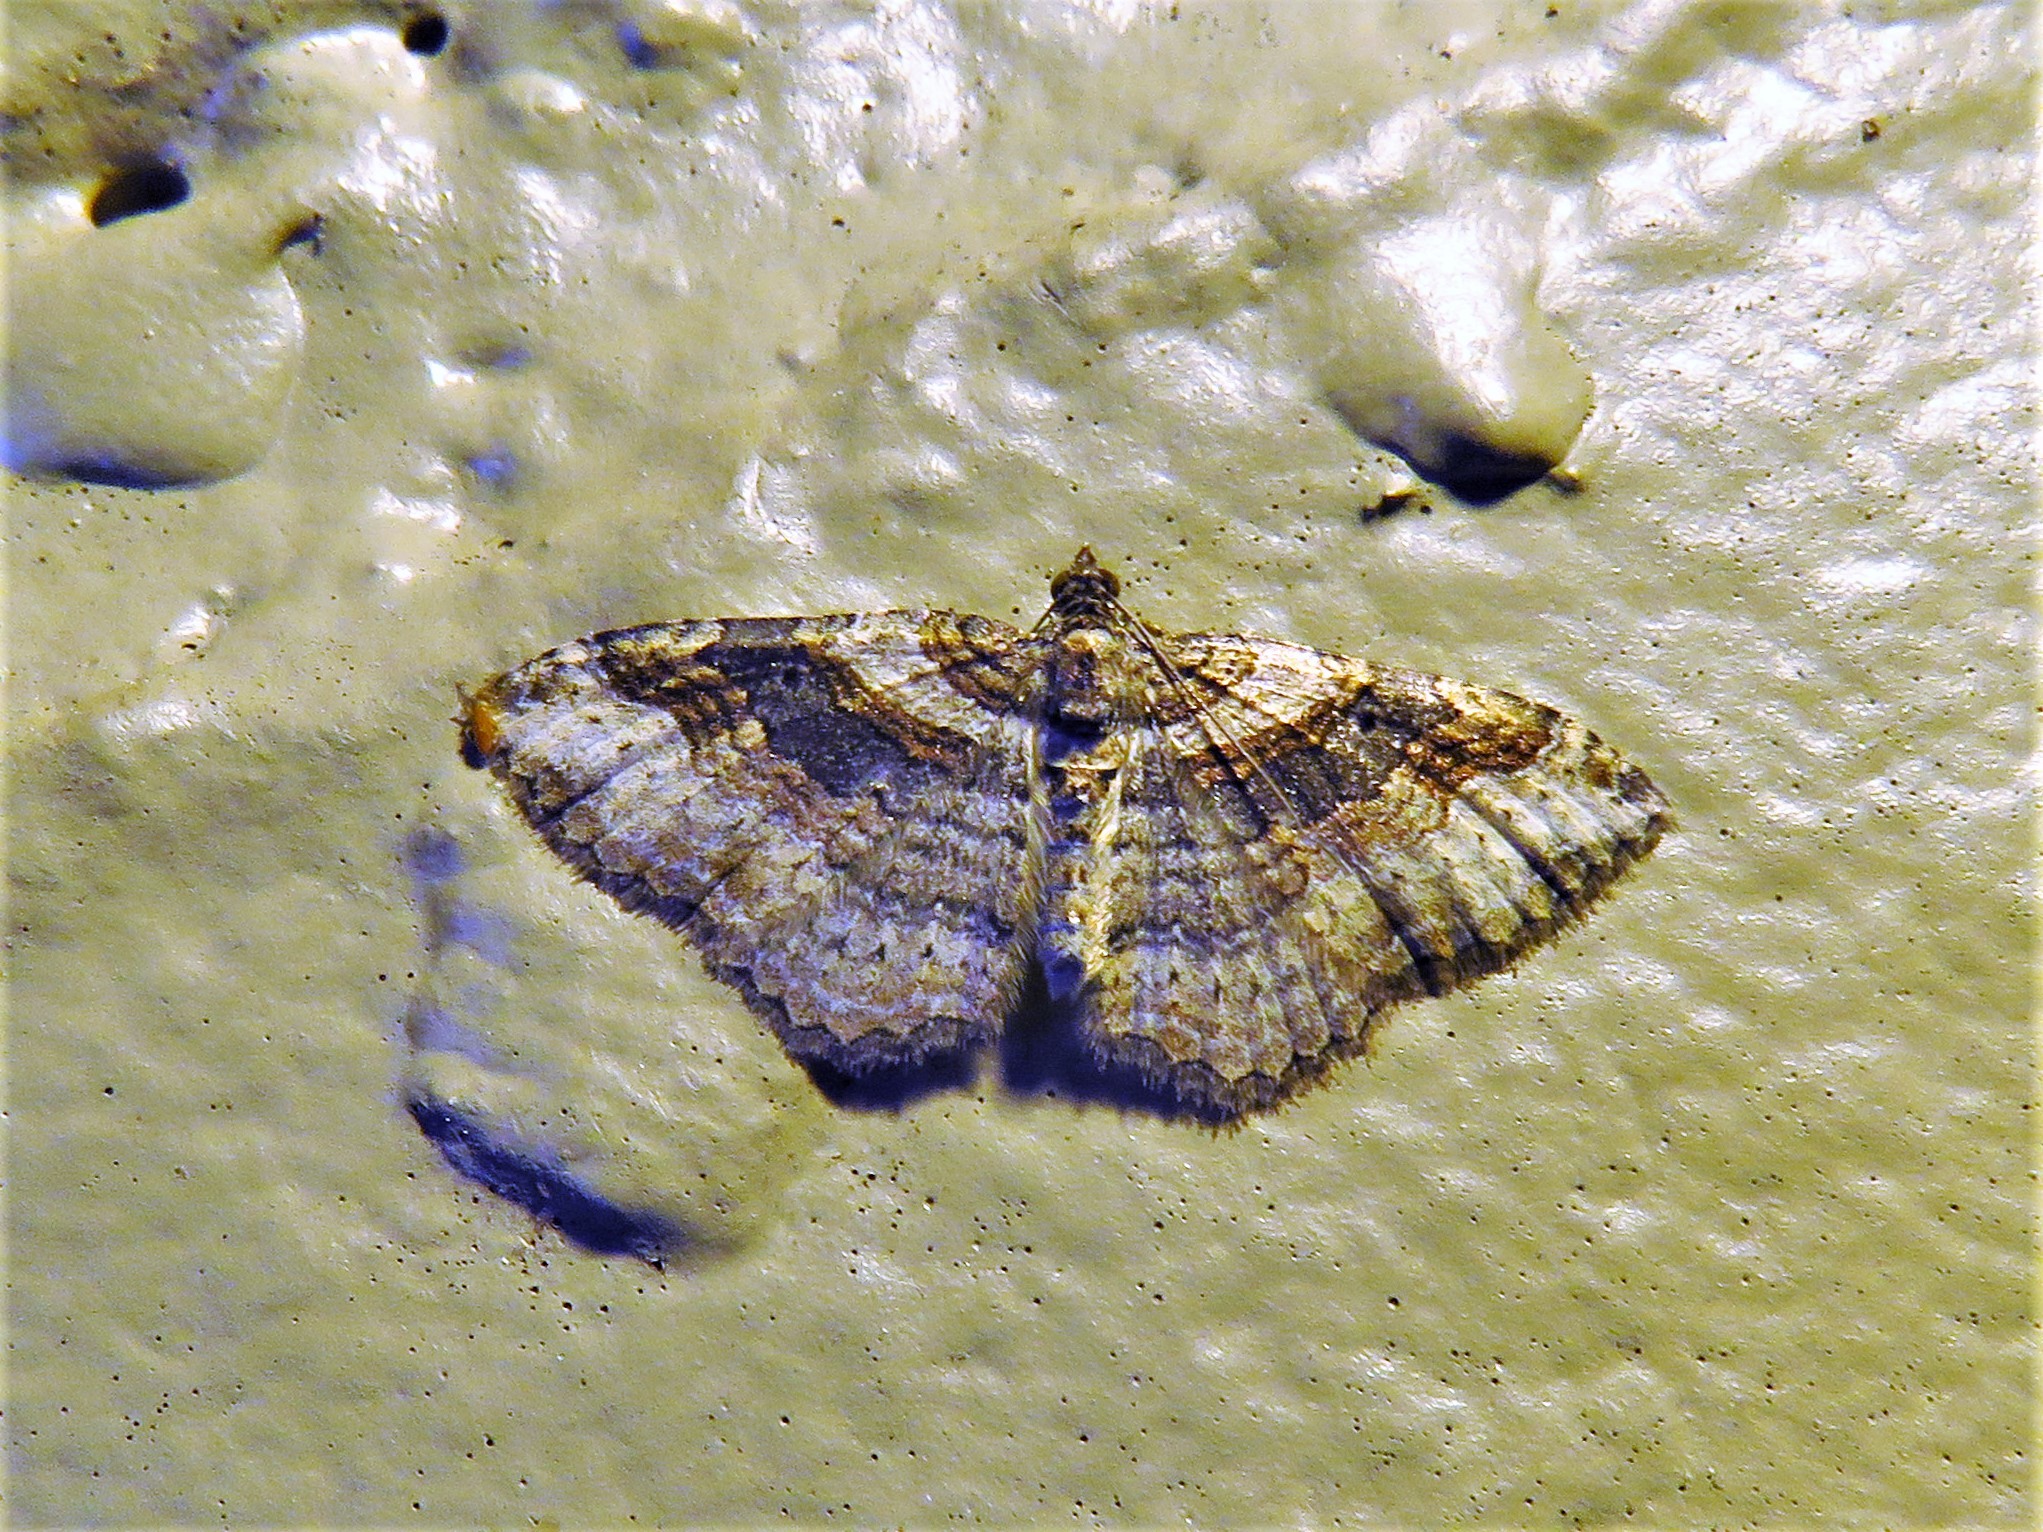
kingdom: Animalia
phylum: Arthropoda
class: Insecta
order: Lepidoptera
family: Geometridae
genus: Costaconvexa
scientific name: Costaconvexa centrostrigaria
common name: Bent-line carpet
